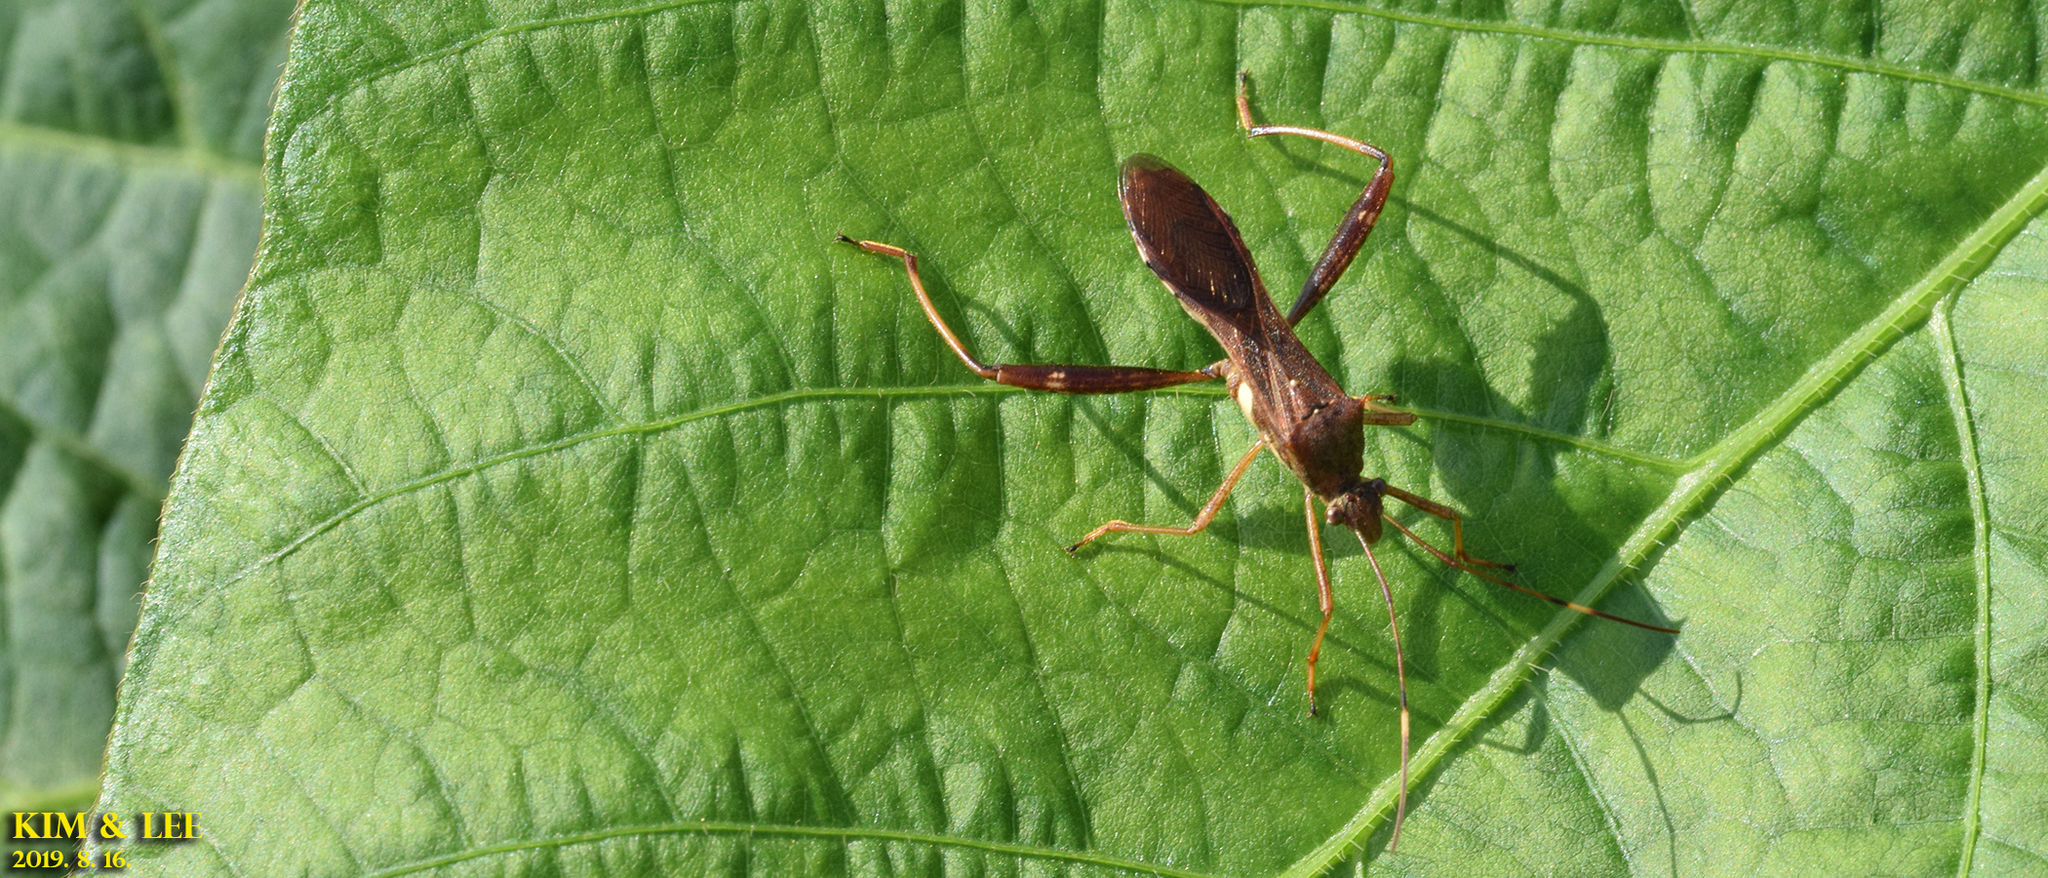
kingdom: Animalia
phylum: Arthropoda
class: Insecta
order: Hemiptera
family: Alydidae
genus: Riptortus
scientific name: Riptortus pedestris
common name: Bean bug
